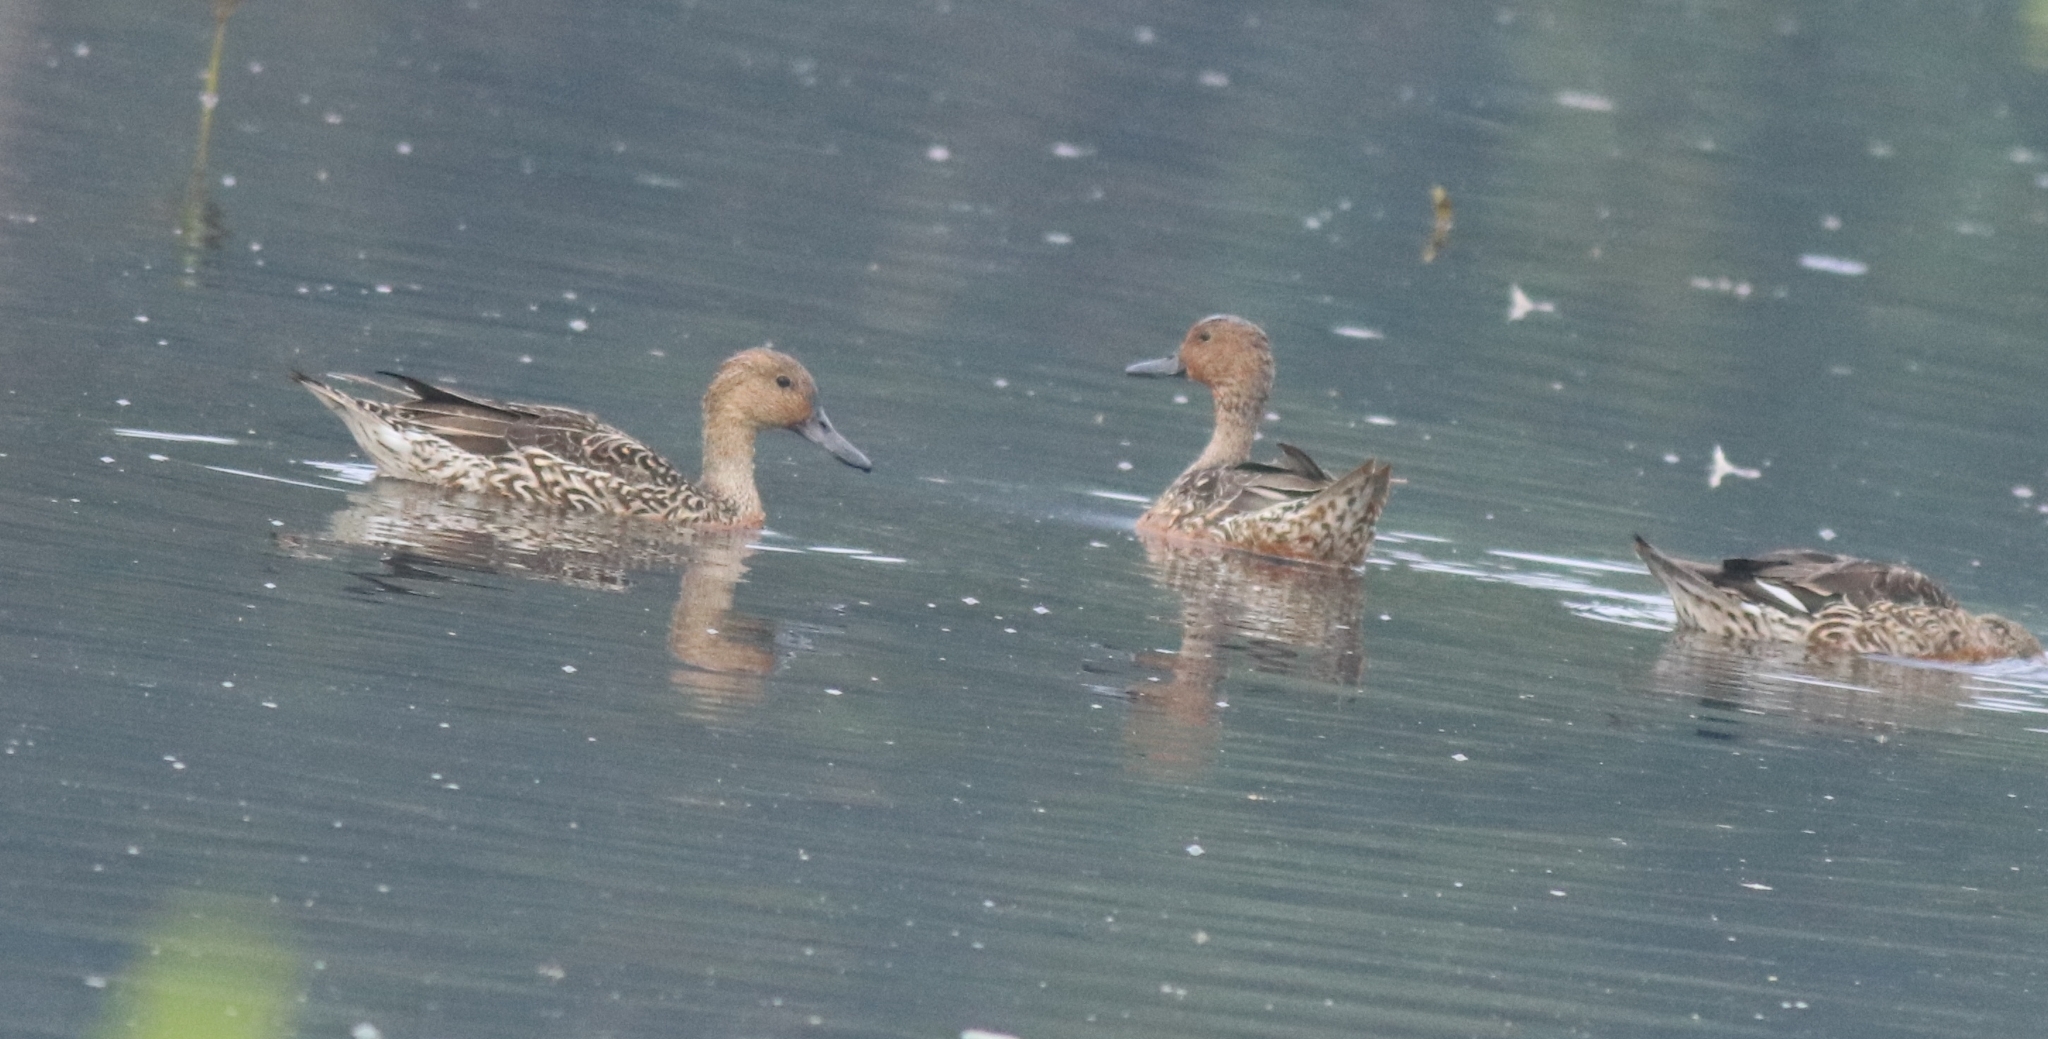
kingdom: Animalia
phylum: Chordata
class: Aves
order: Anseriformes
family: Anatidae
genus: Anas
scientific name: Anas acuta
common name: Northern pintail
